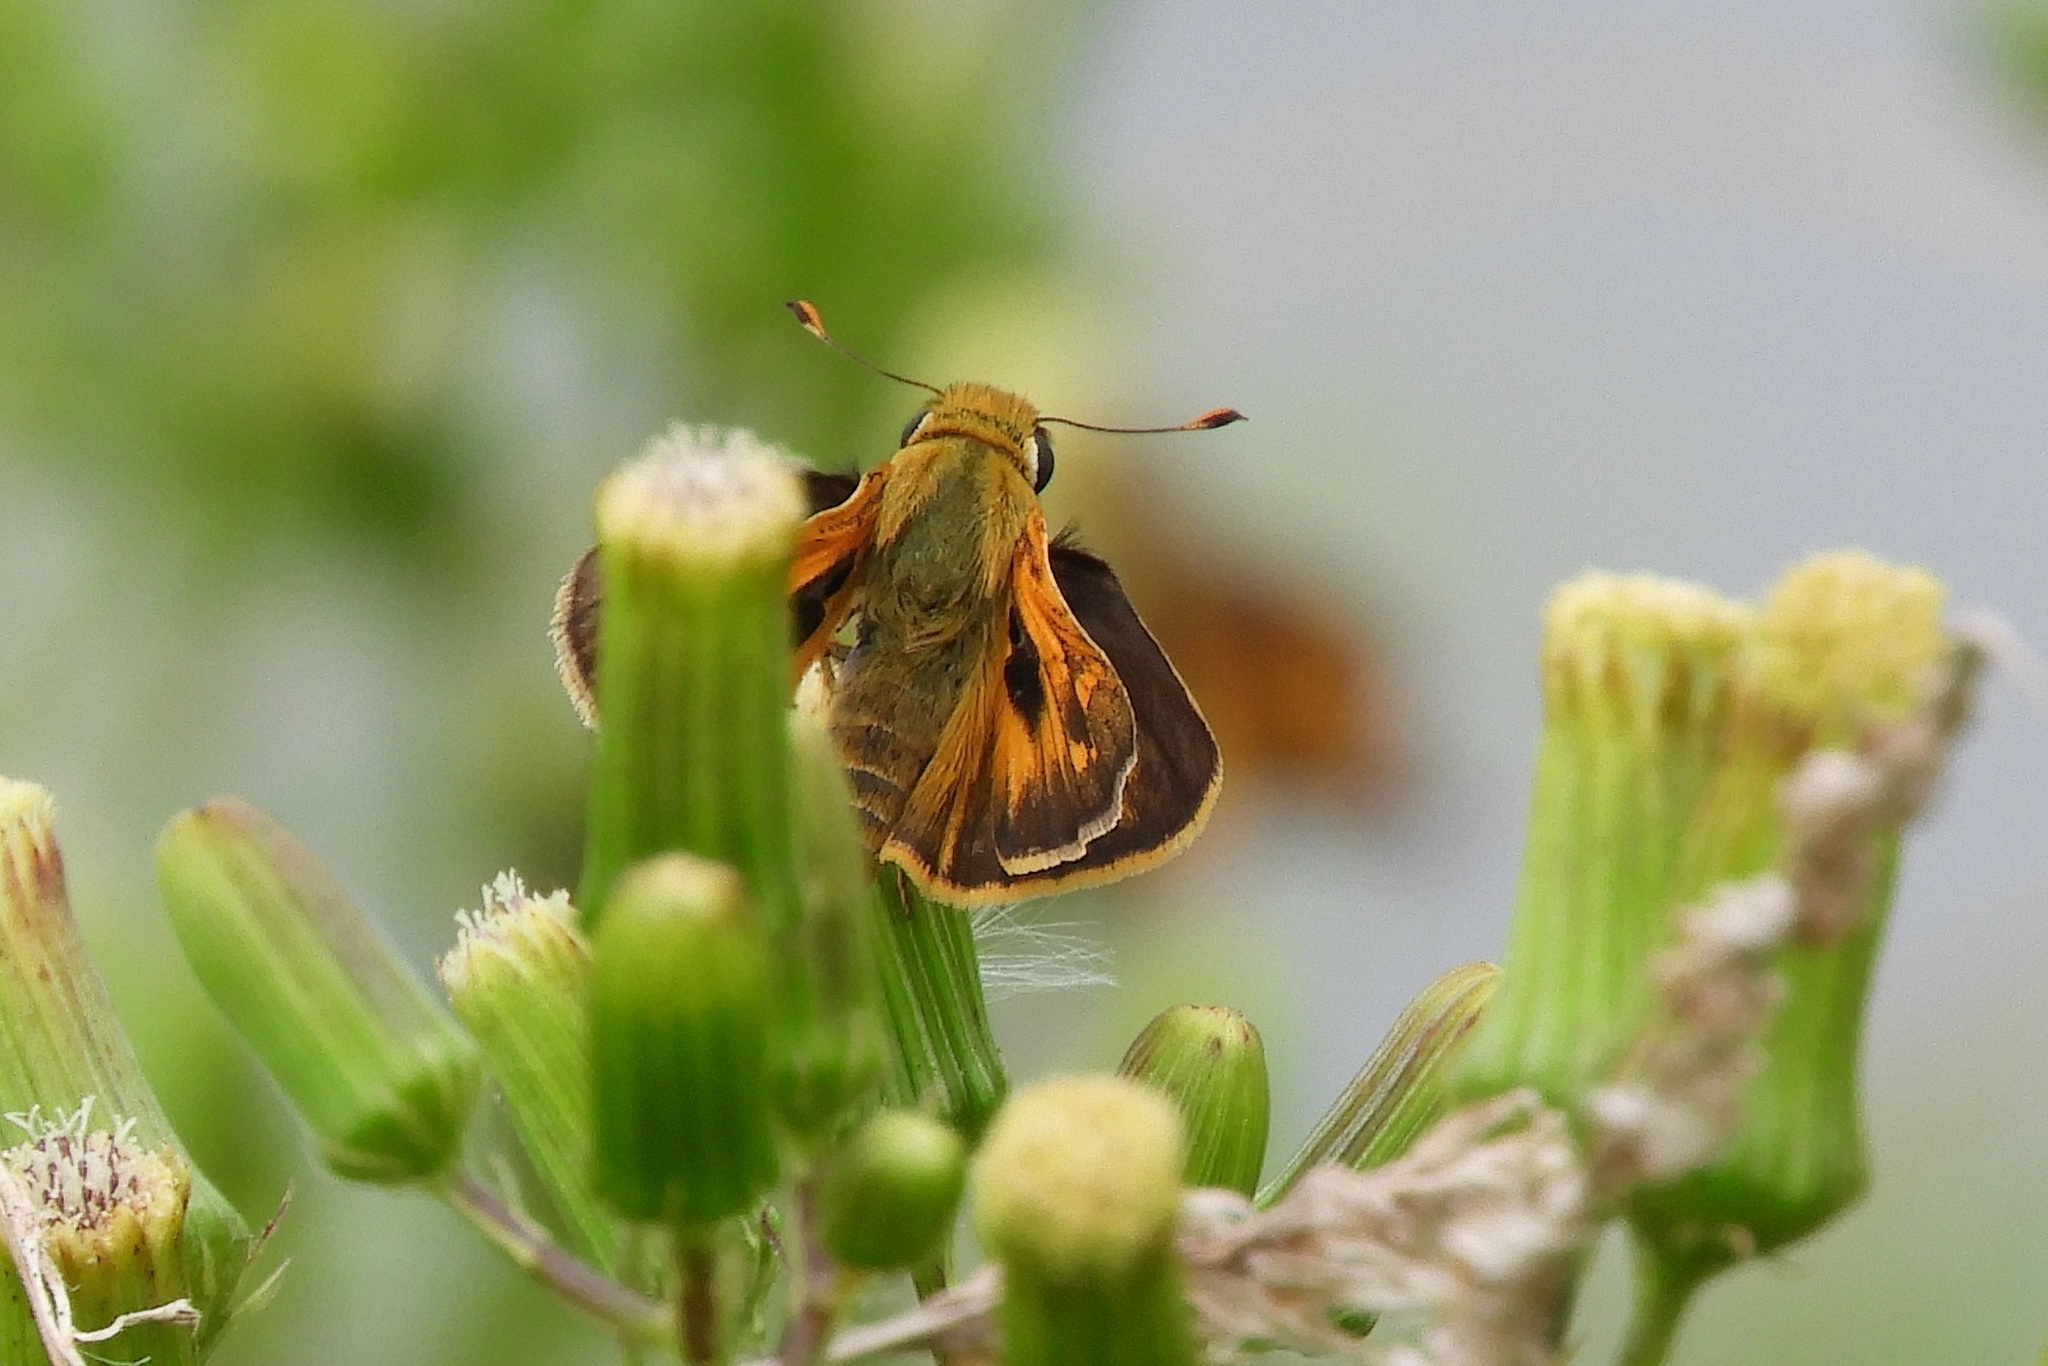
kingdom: Animalia
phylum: Arthropoda
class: Insecta
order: Lepidoptera
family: Hesperiidae
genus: Atalopedes
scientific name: Atalopedes
